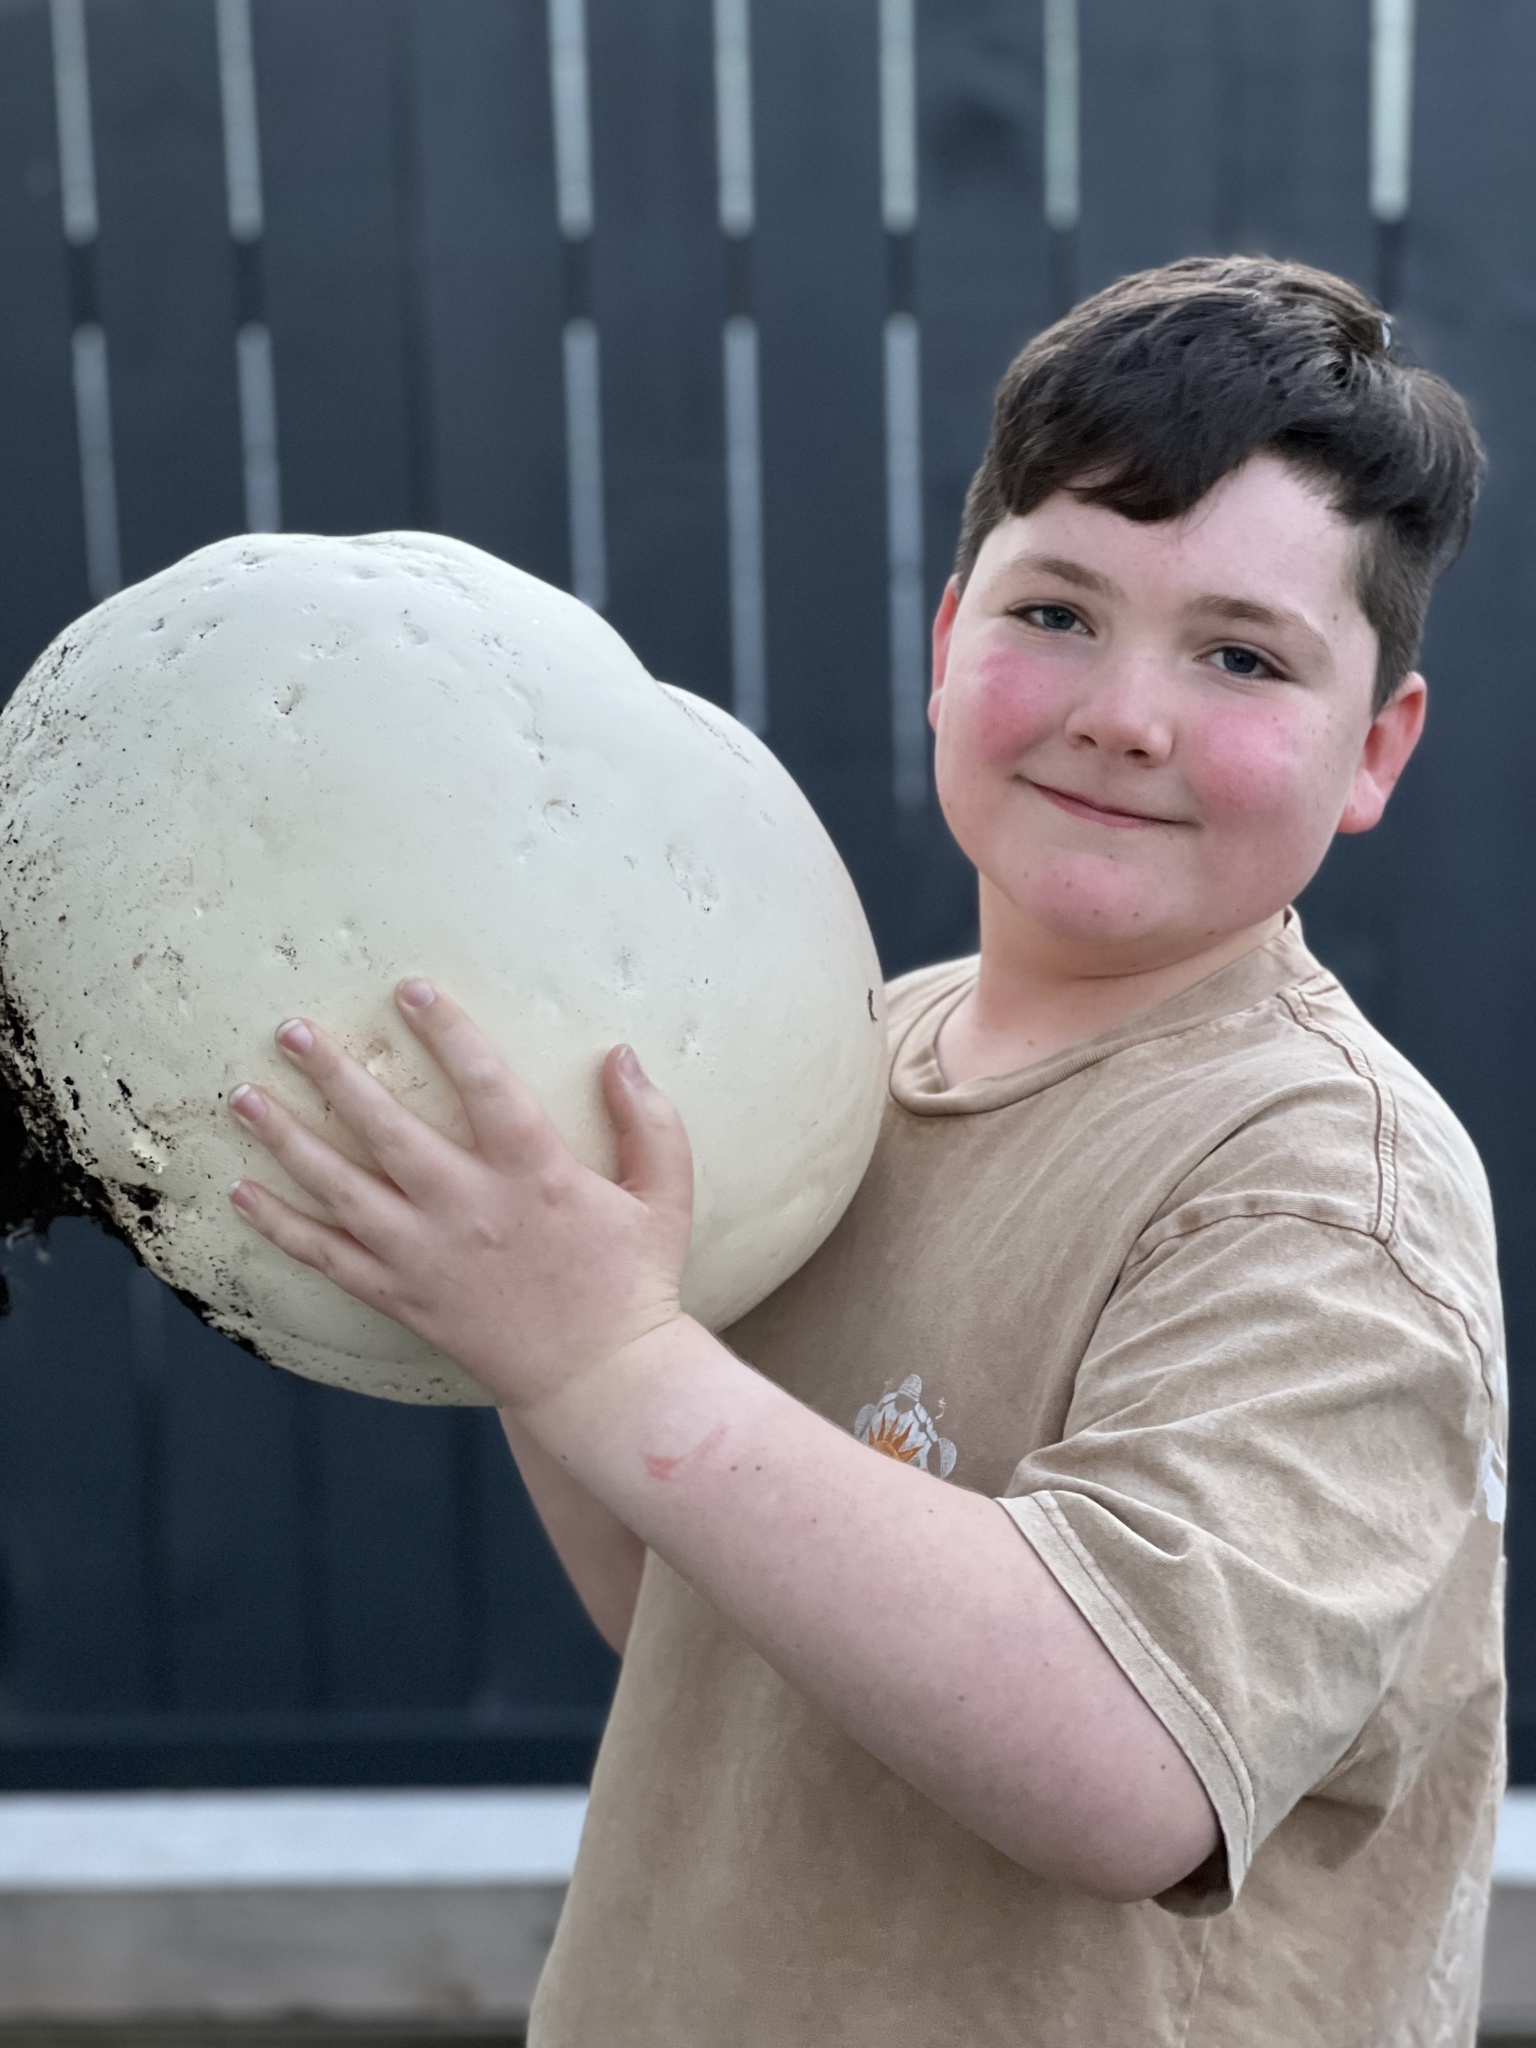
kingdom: Fungi
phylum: Basidiomycota
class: Agaricomycetes
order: Agaricales
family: Lycoperdaceae
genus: Calvatia
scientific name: Calvatia gigantea
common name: Giant puffball
